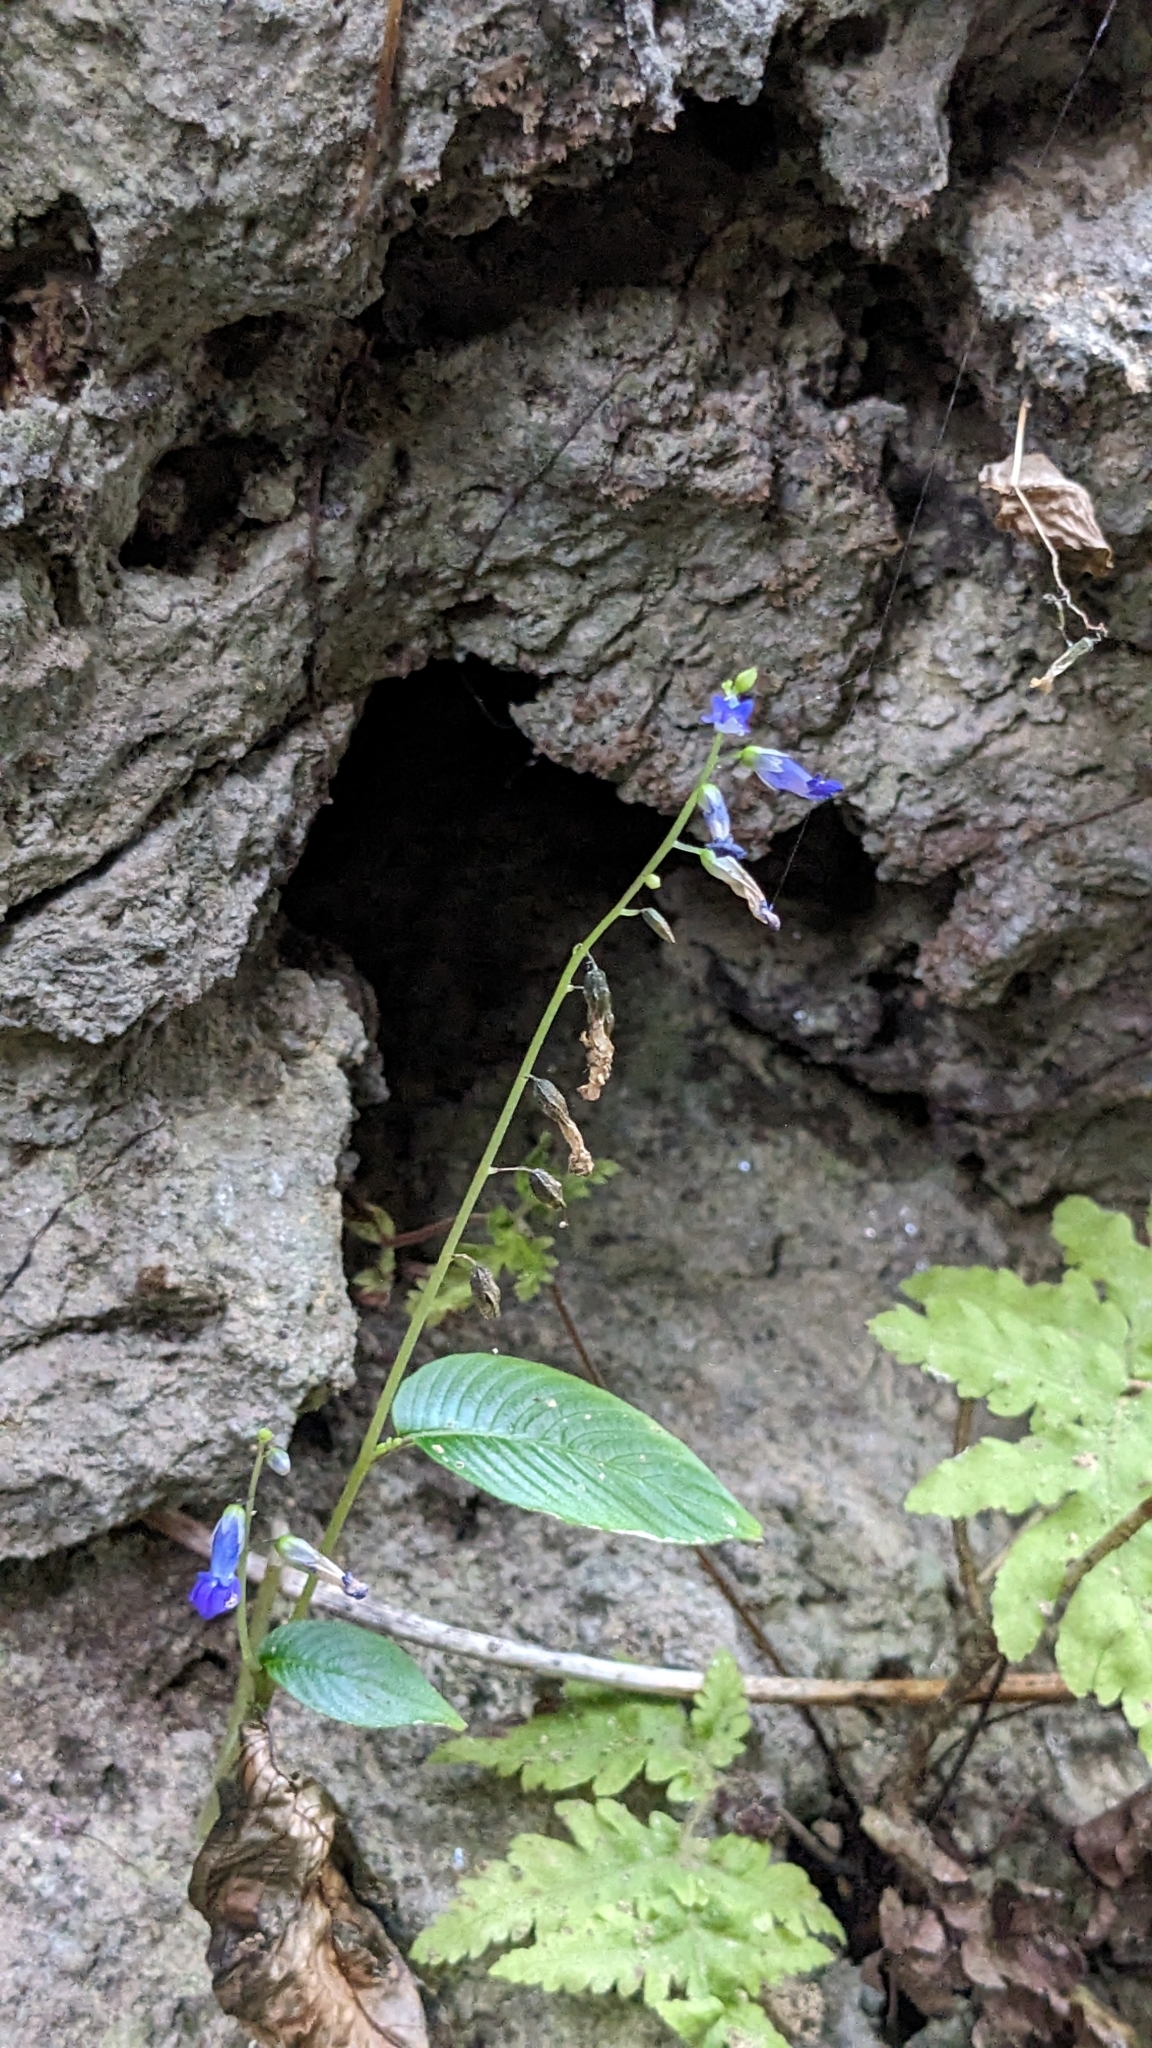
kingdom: Plantae
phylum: Tracheophyta
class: Magnoliopsida
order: Lamiales
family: Gesneriaceae
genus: Rhynchoglossum
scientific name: Rhynchoglossum obliquum
